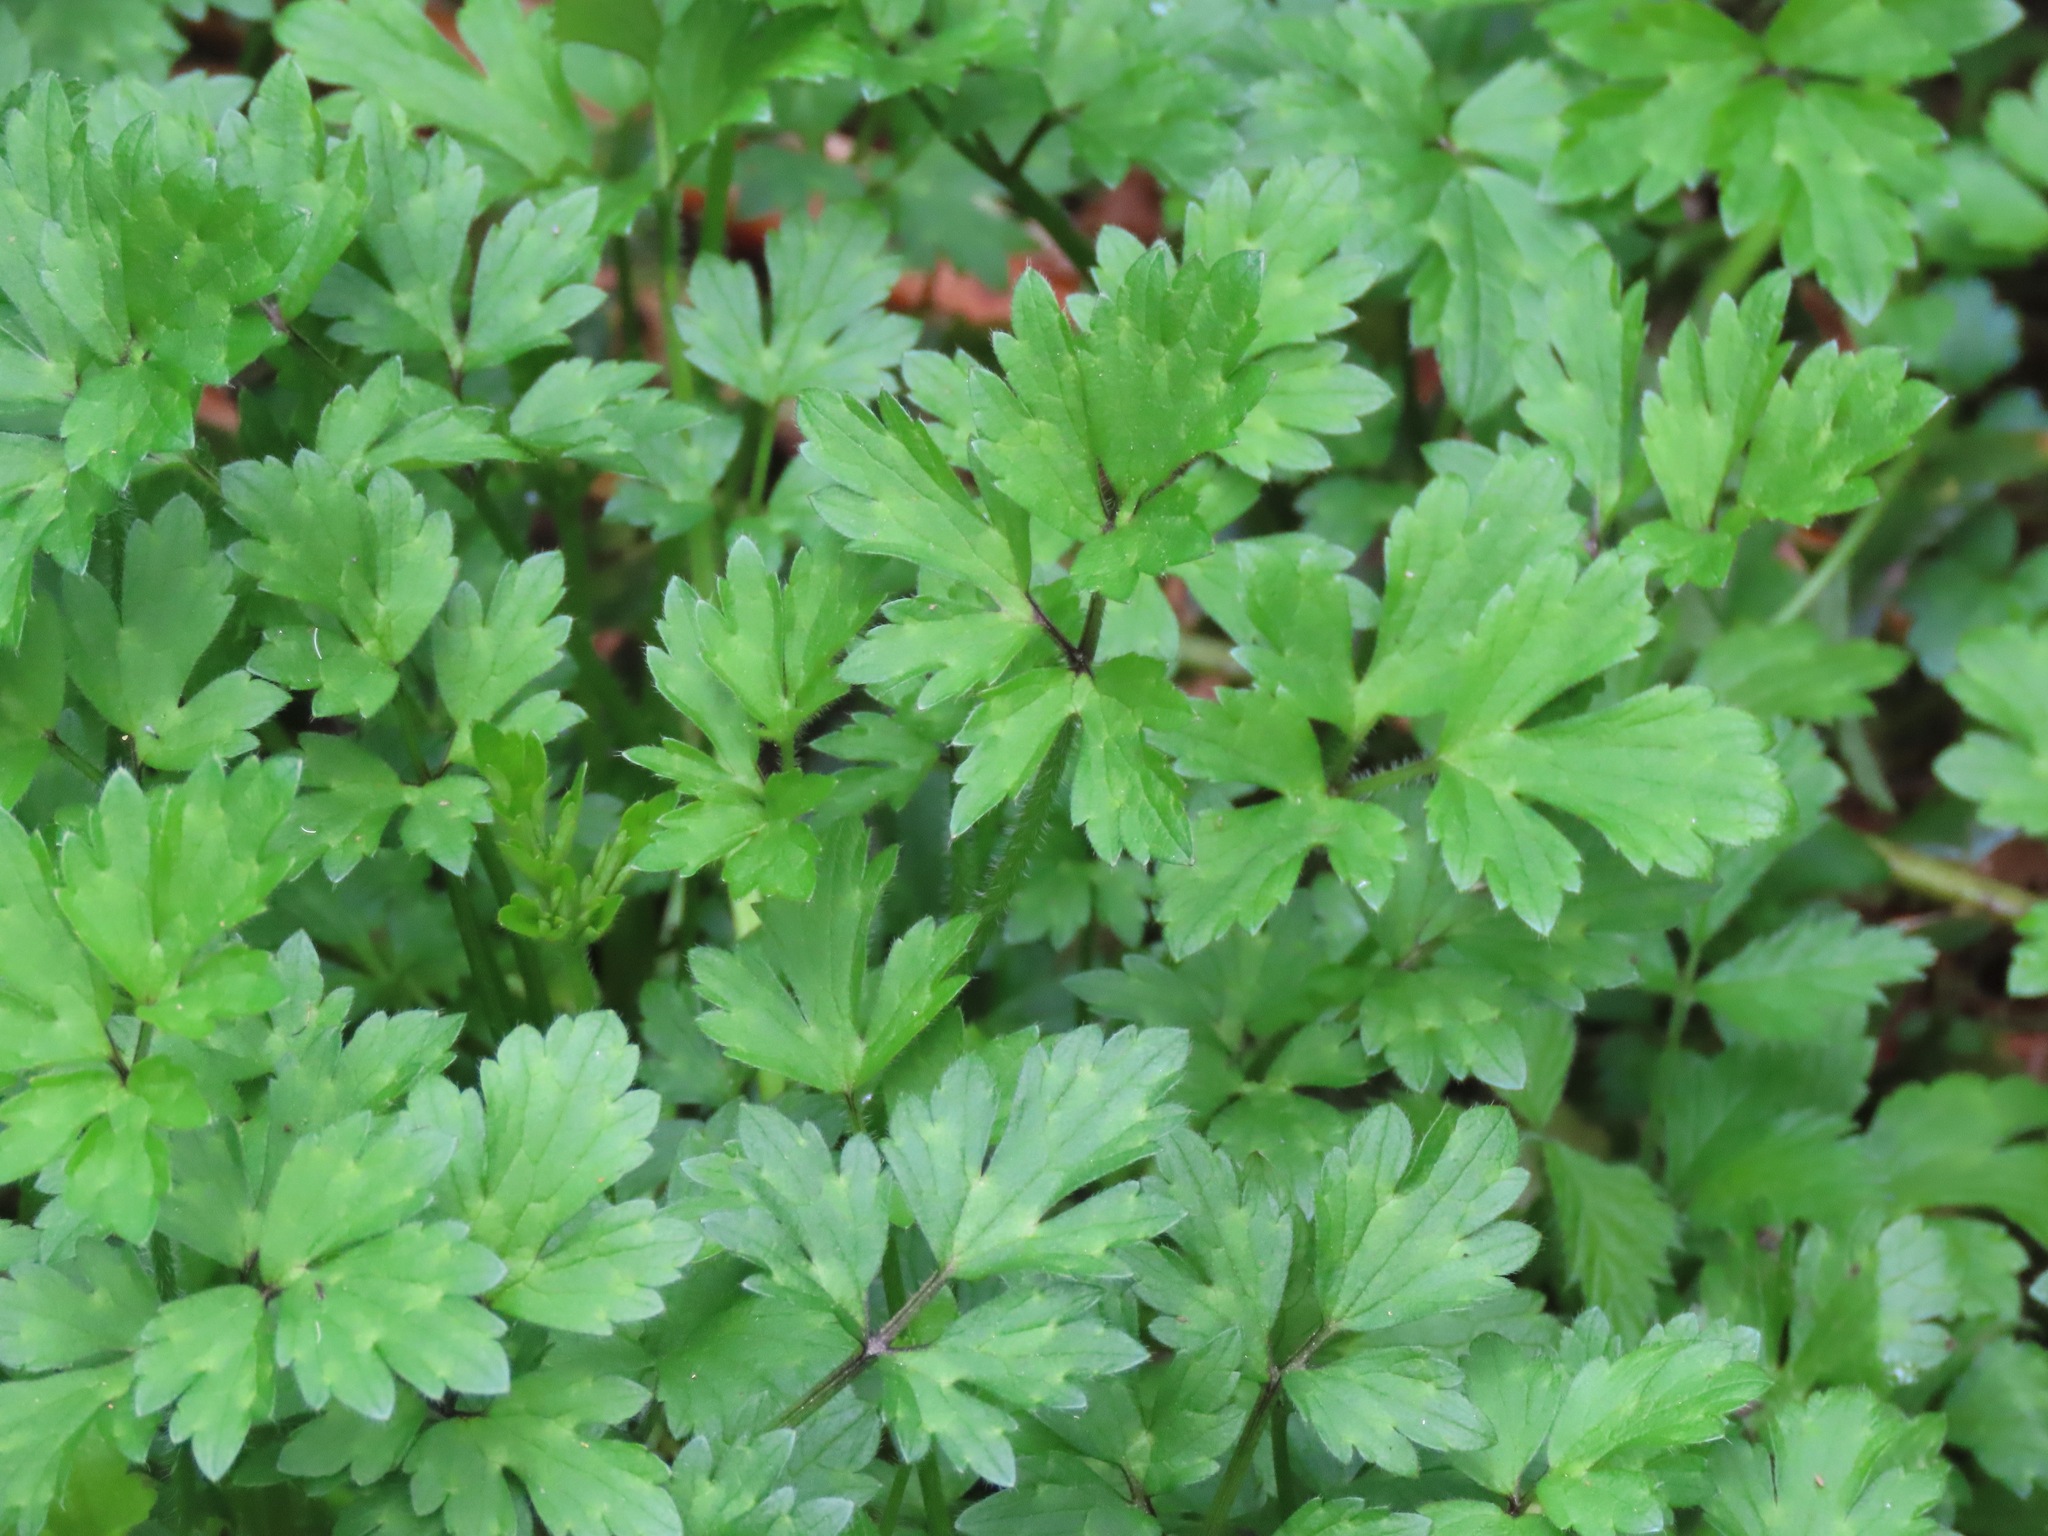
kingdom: Plantae
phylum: Tracheophyta
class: Magnoliopsida
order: Ranunculales
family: Ranunculaceae
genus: Ranunculus
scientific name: Ranunculus repens
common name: Creeping buttercup
